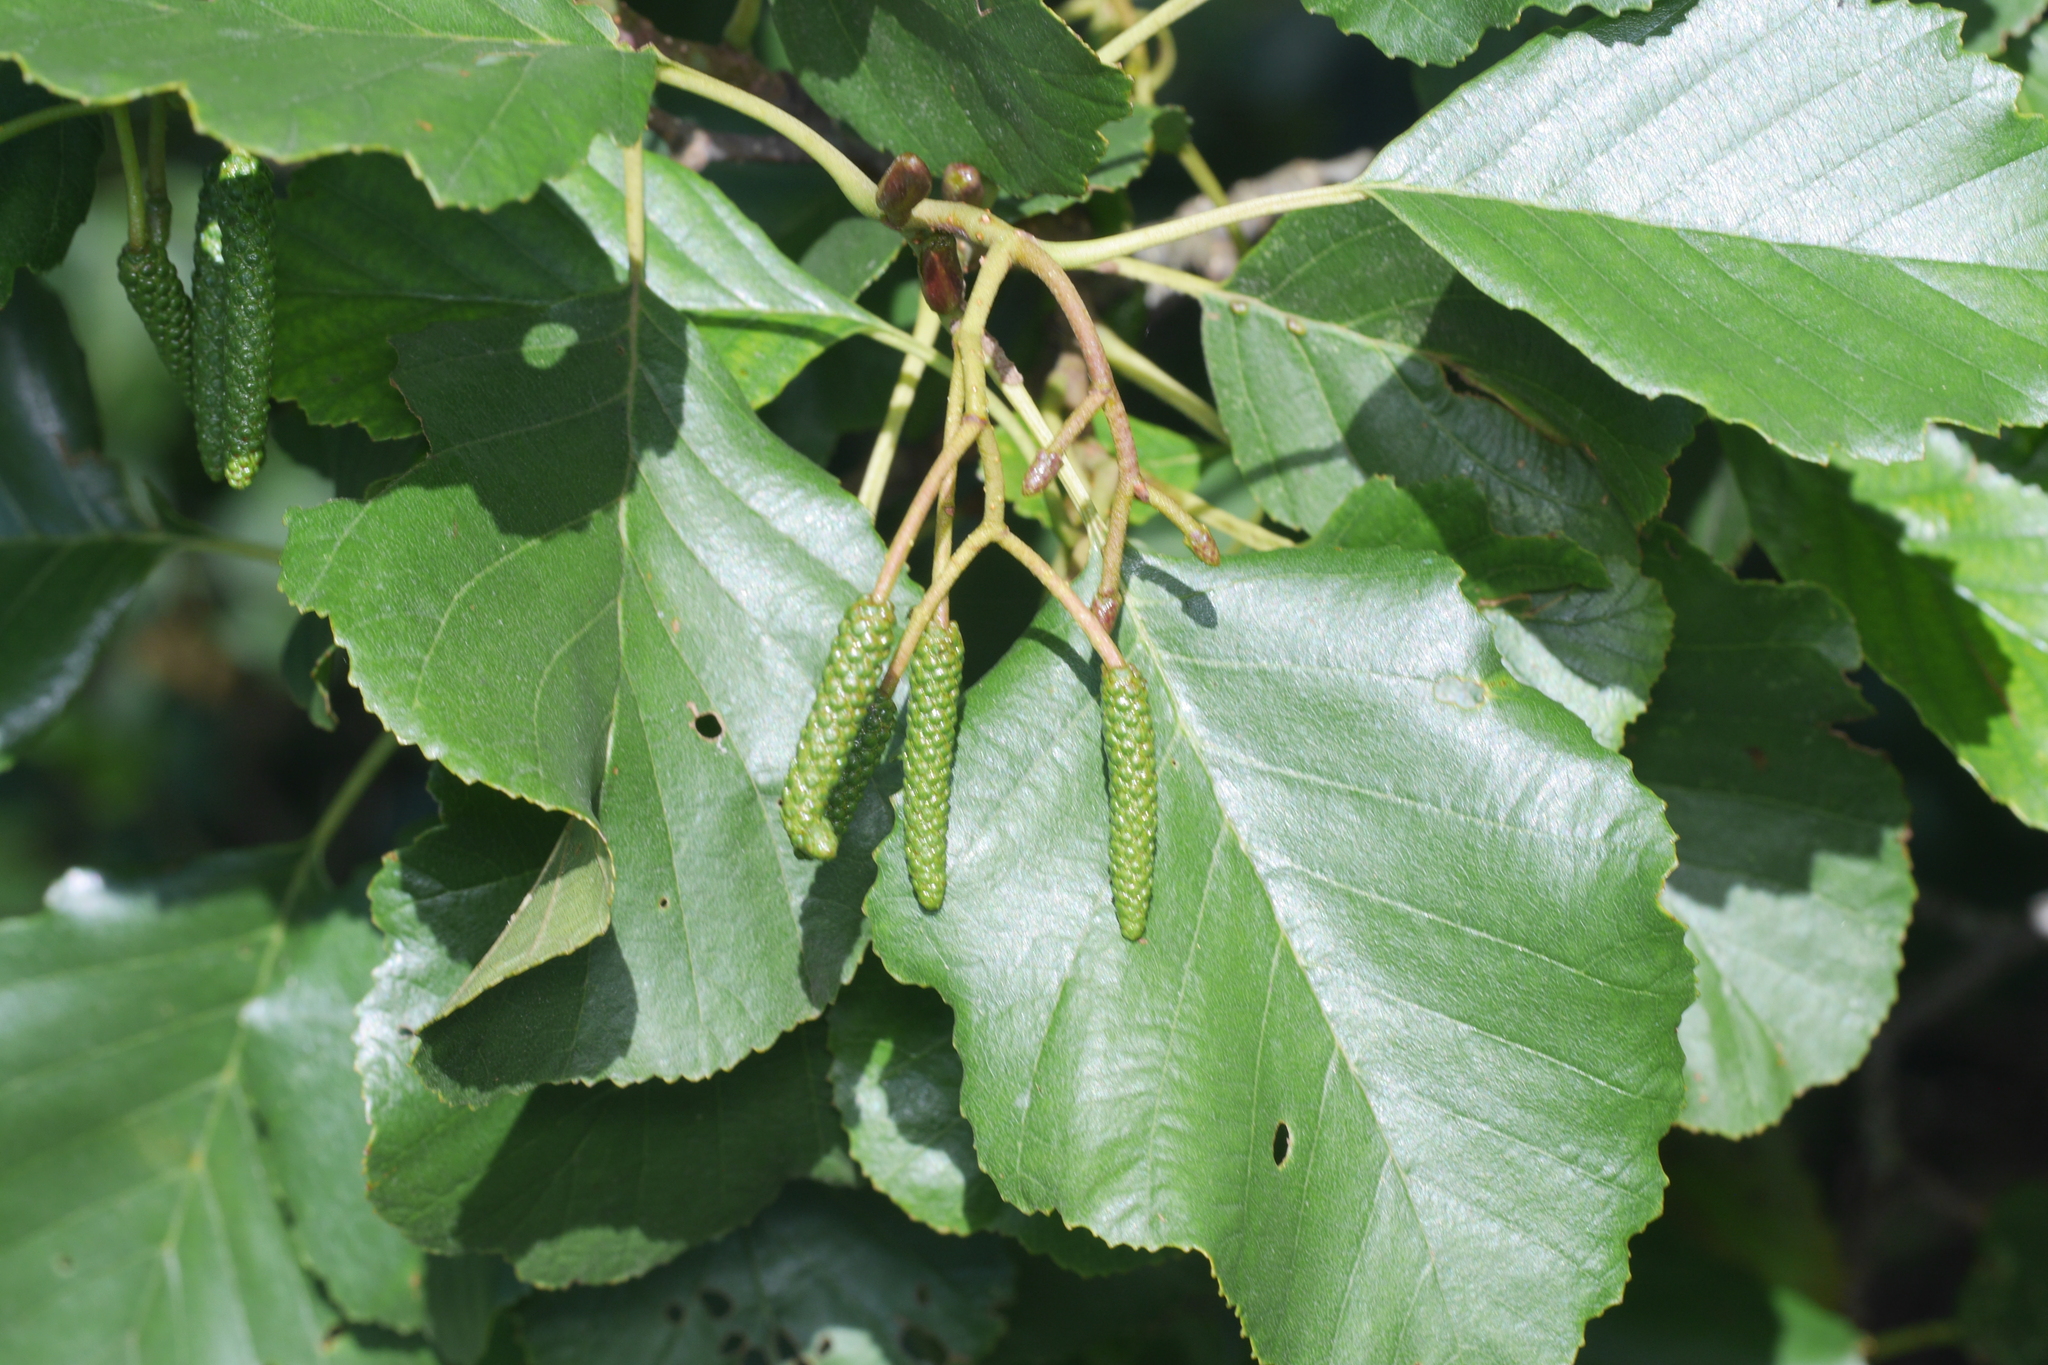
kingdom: Plantae
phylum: Tracheophyta
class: Magnoliopsida
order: Fagales
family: Betulaceae
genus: Alnus
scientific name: Alnus glutinosa
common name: Black alder
